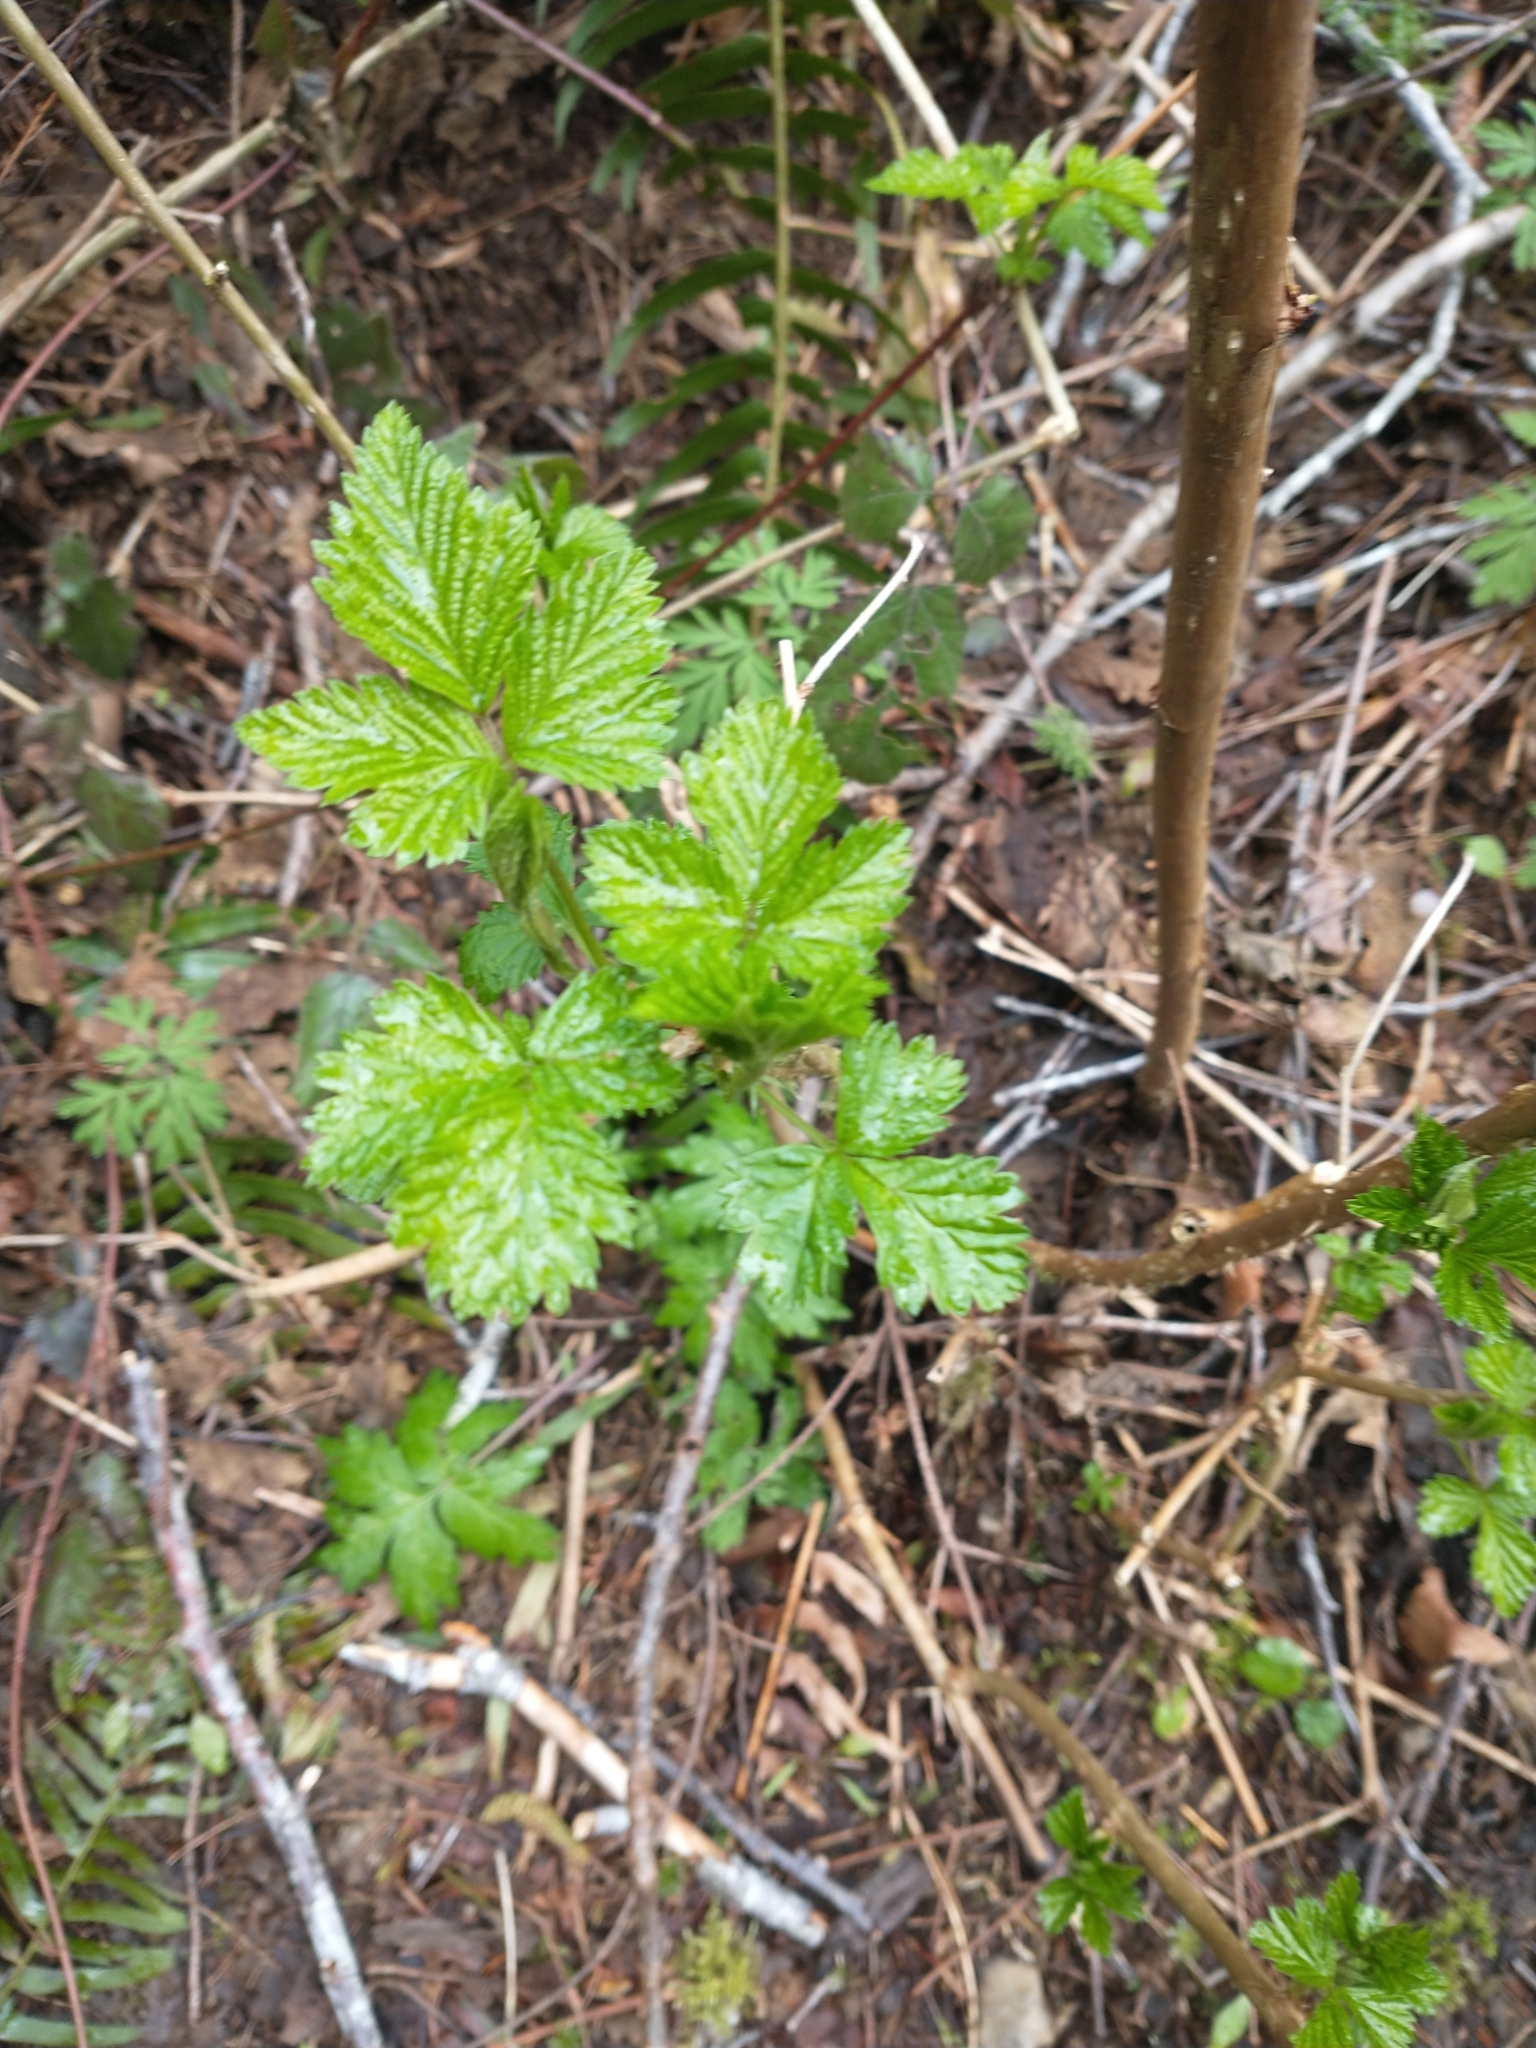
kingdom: Plantae
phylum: Tracheophyta
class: Magnoliopsida
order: Rosales
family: Rosaceae
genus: Rubus
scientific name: Rubus spectabilis
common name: Salmonberry
